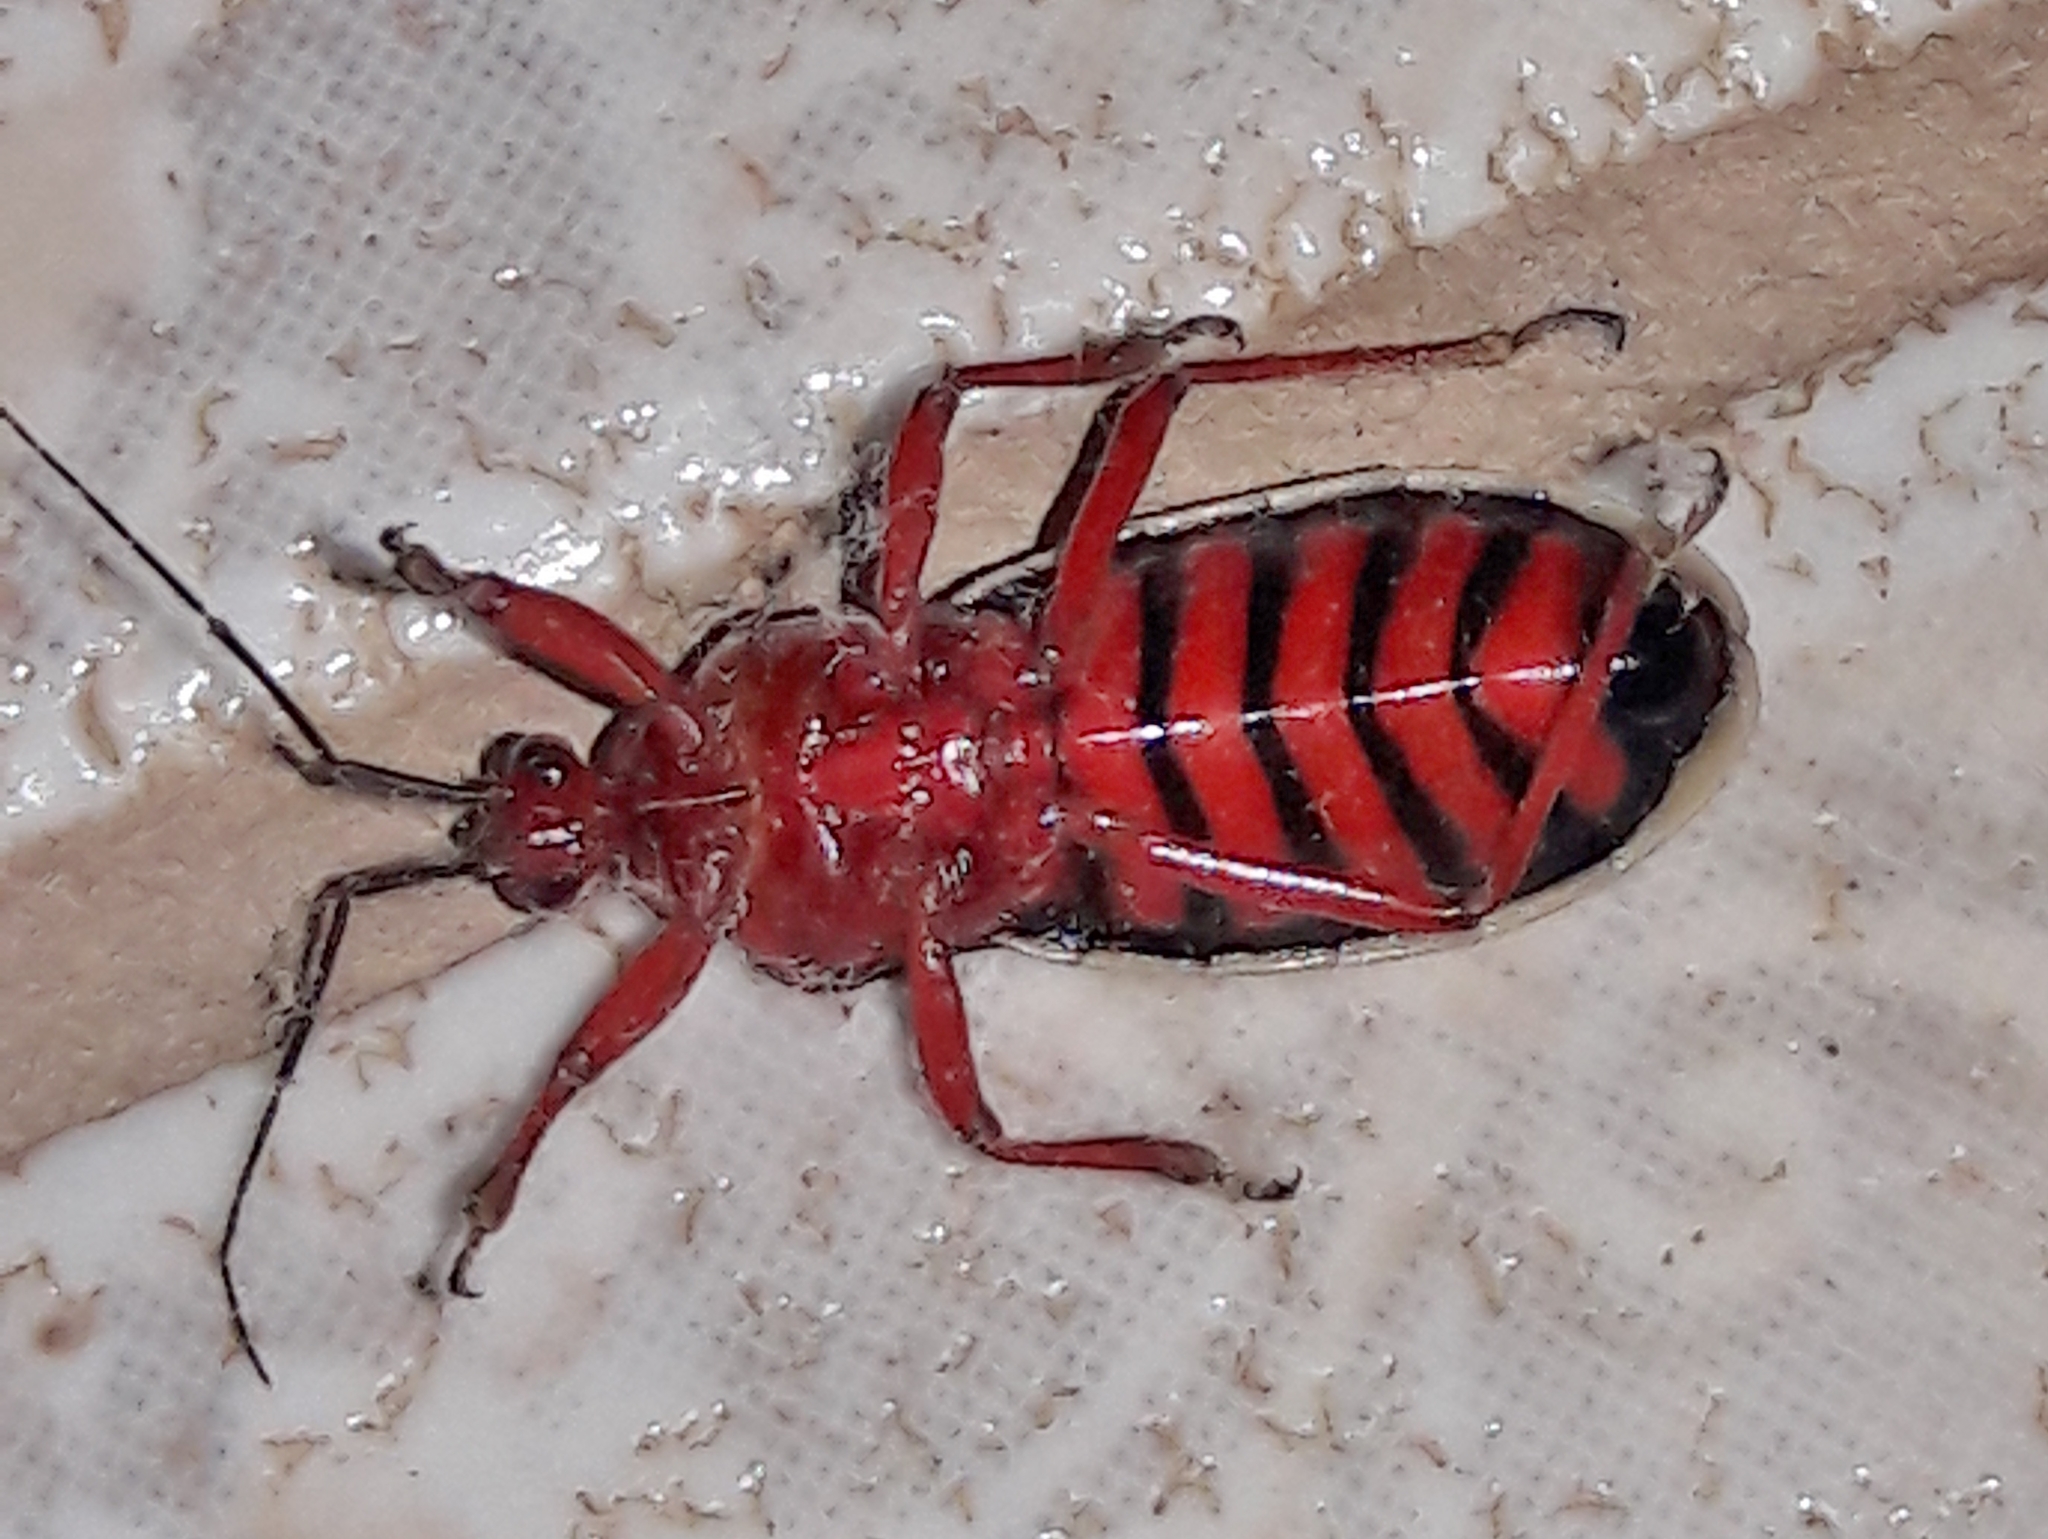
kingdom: Animalia
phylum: Arthropoda
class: Insecta
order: Hemiptera
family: Reduviidae
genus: Brontostoma
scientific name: Brontostoma discus
